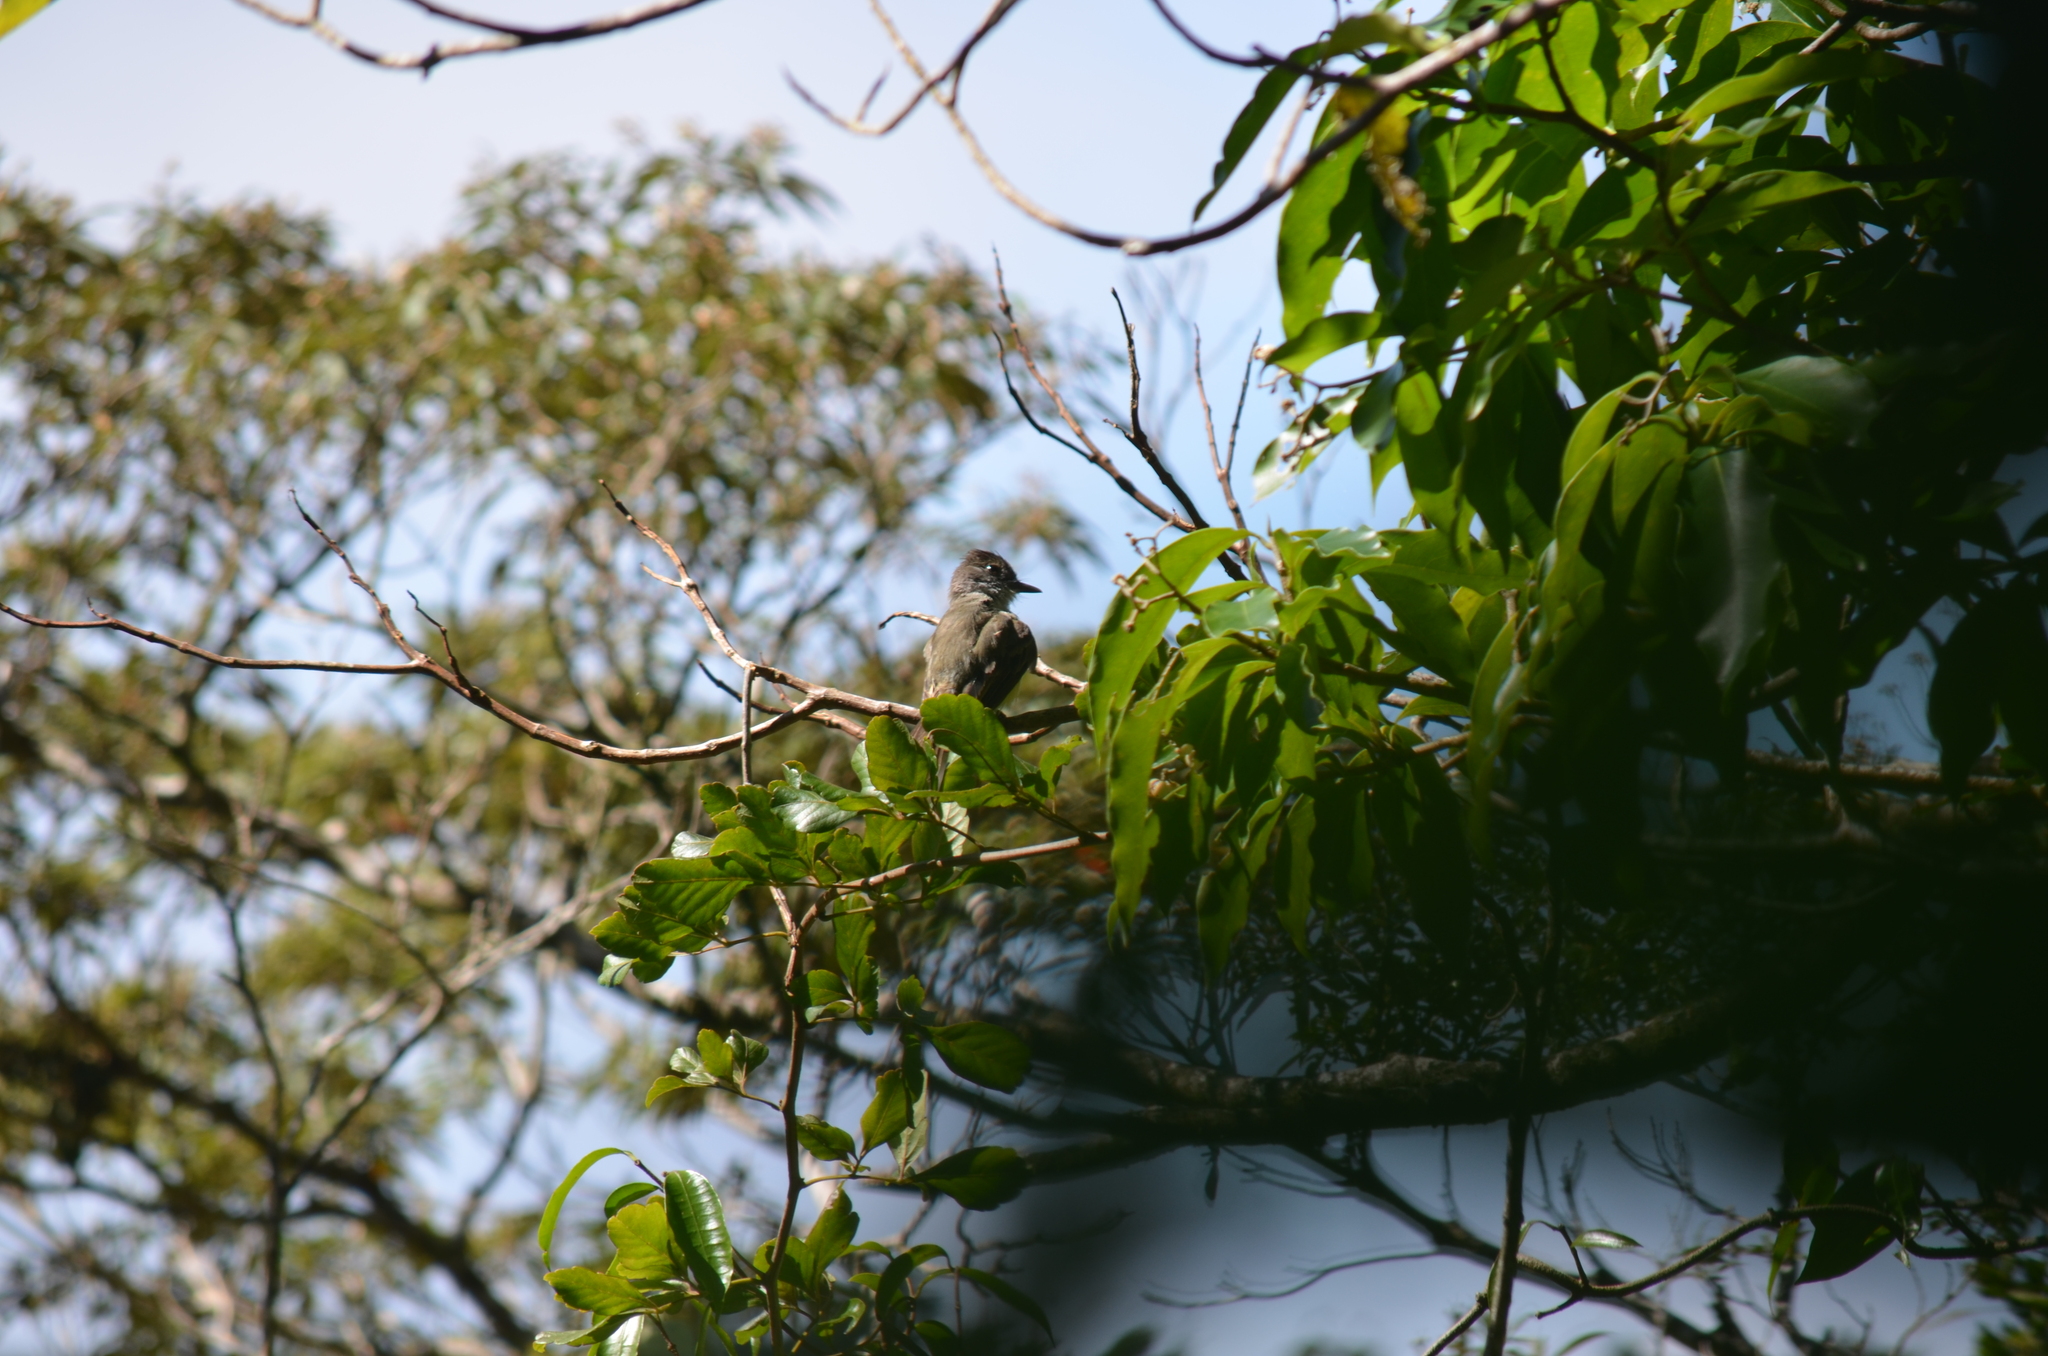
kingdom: Animalia
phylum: Chordata
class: Aves
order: Passeriformes
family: Tyrannidae
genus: Myiarchus
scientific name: Myiarchus tuberculifer
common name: Dusky-capped flycatcher
